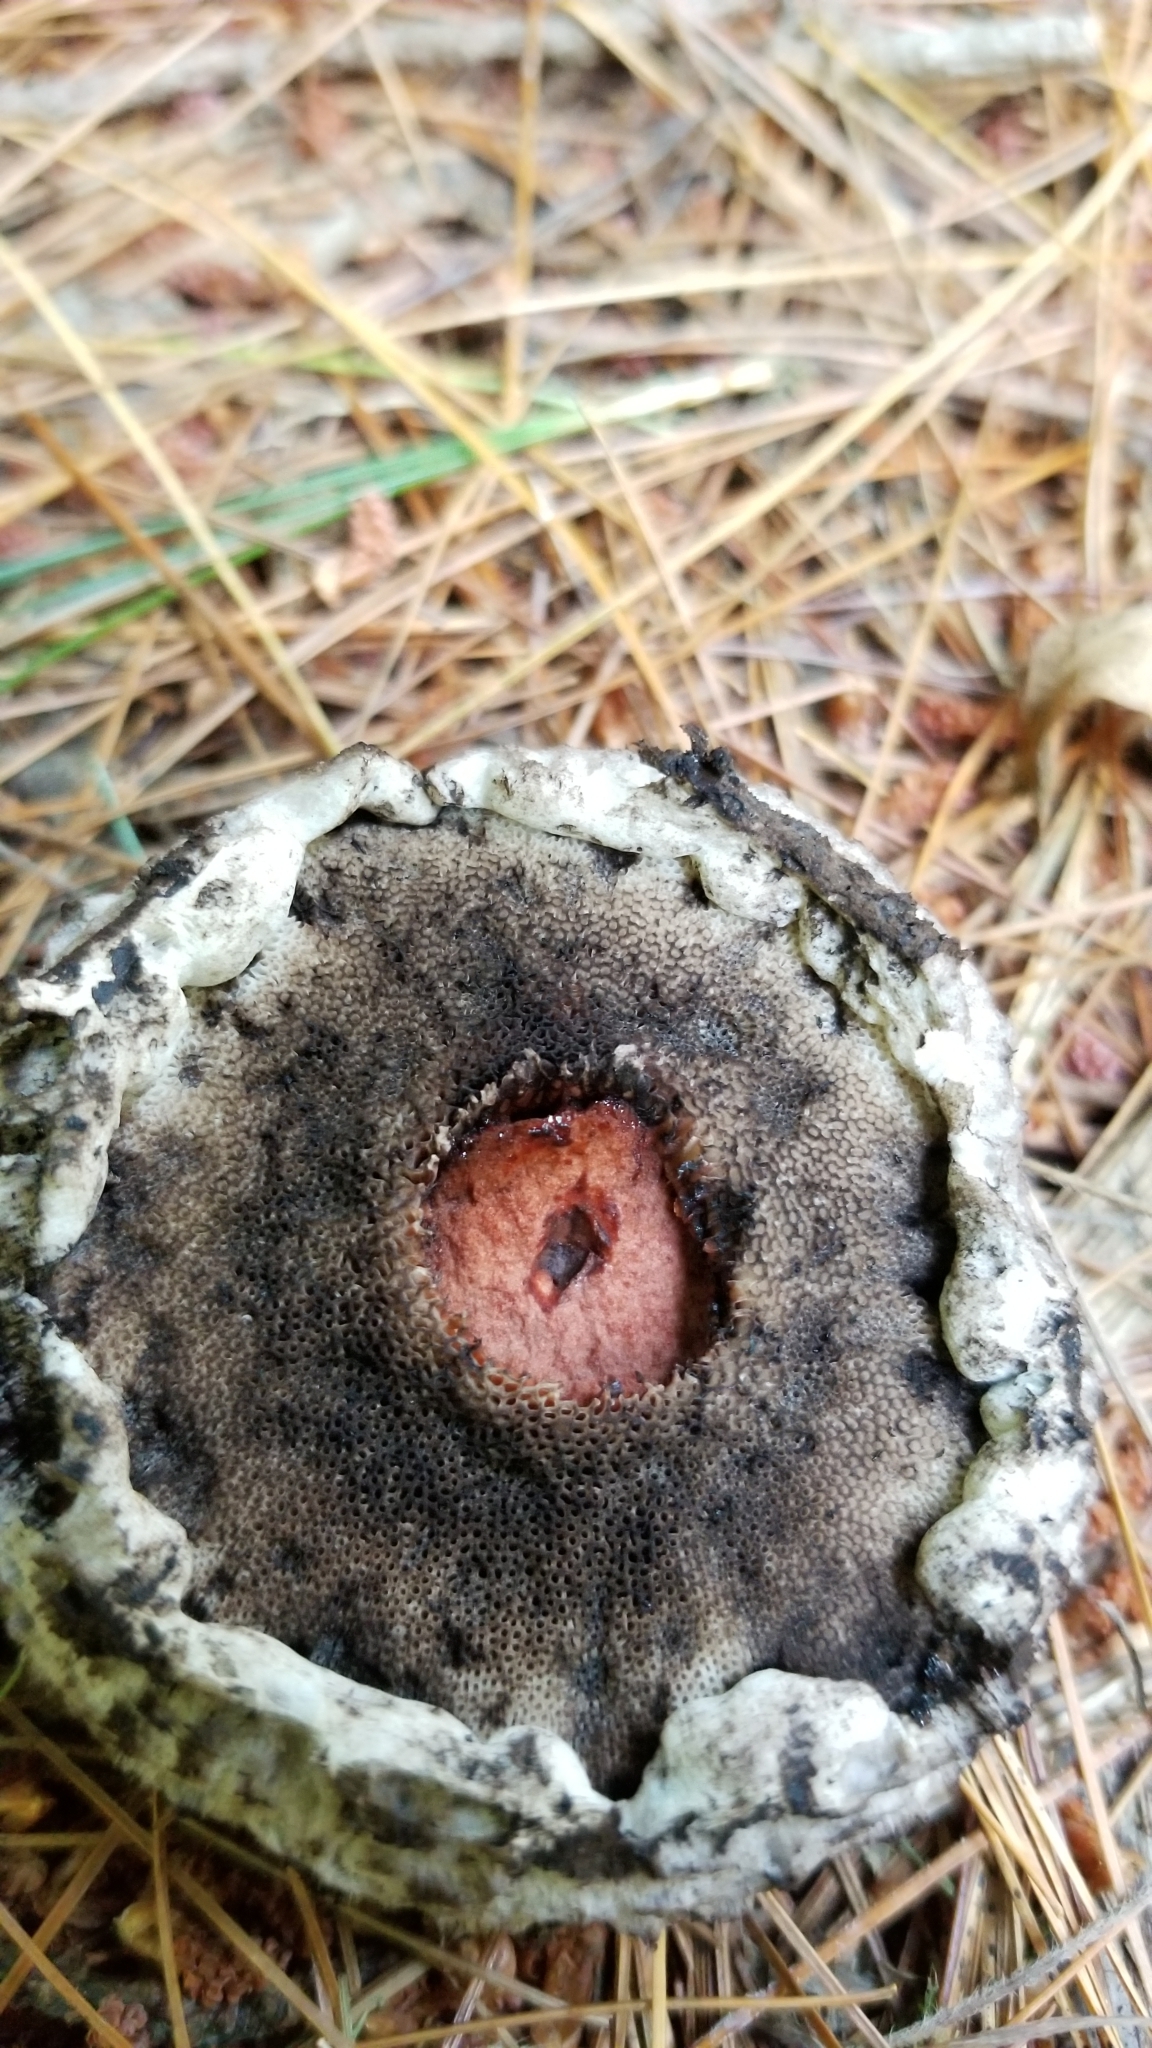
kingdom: Fungi
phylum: Basidiomycota
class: Agaricomycetes
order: Boletales
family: Boletaceae
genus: Strobilomyces
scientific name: Strobilomyces strobilaceus
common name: Old man of the woods
